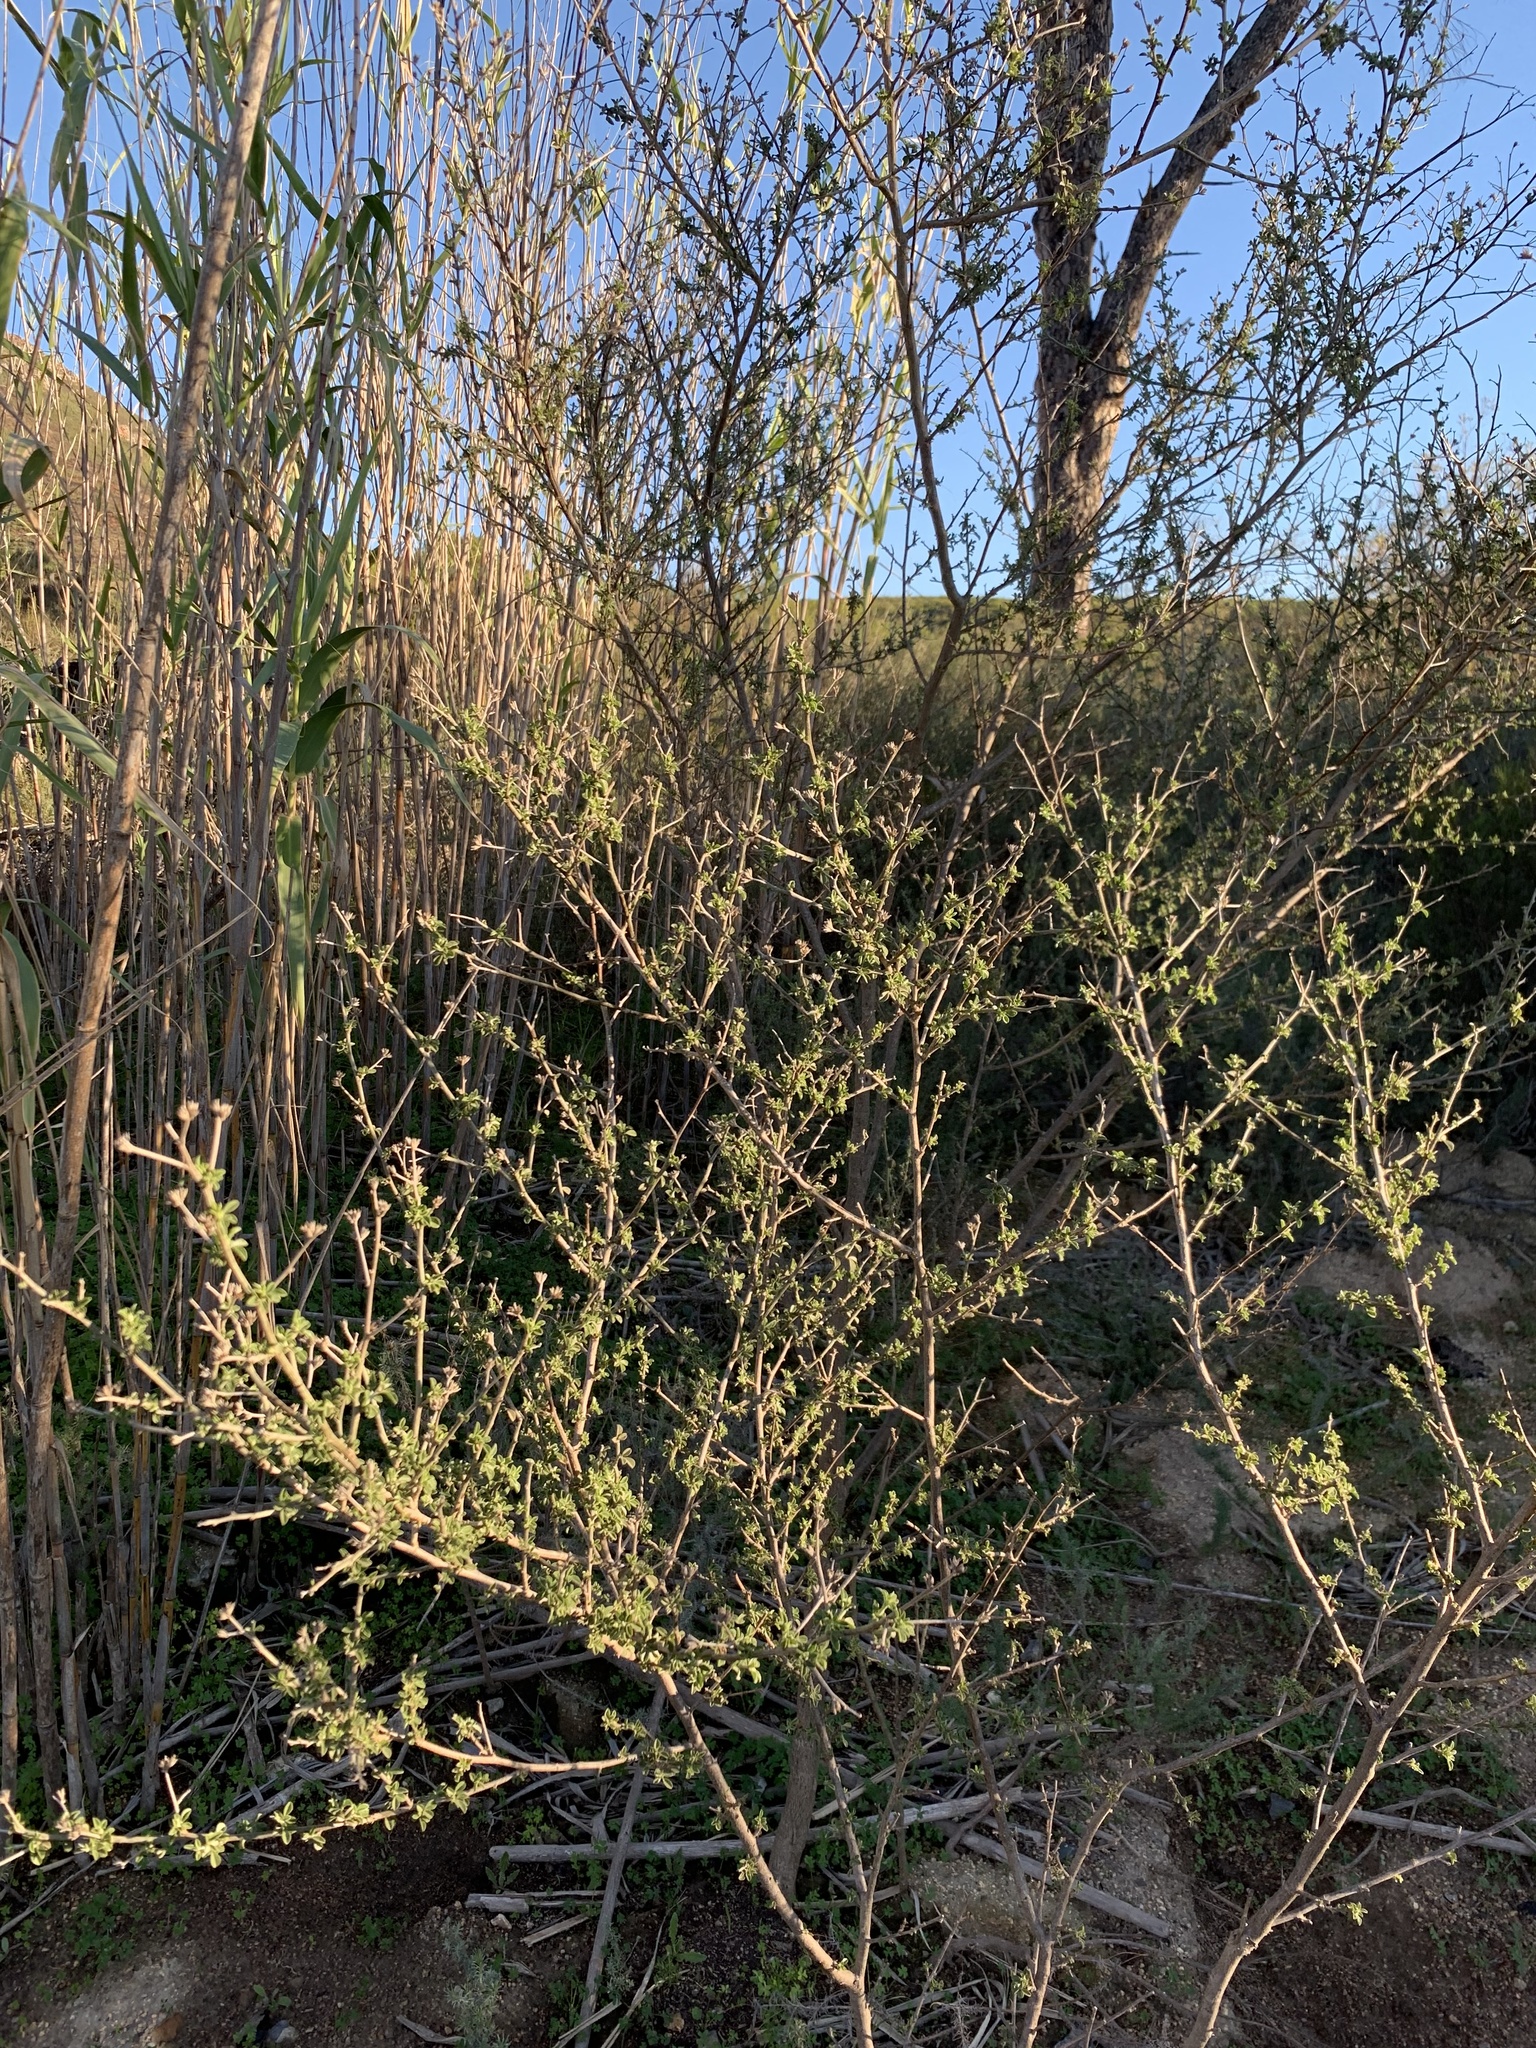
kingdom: Plantae
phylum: Tracheophyta
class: Magnoliopsida
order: Fabales
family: Fabaceae
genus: Psoralea
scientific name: Psoralea hirta
